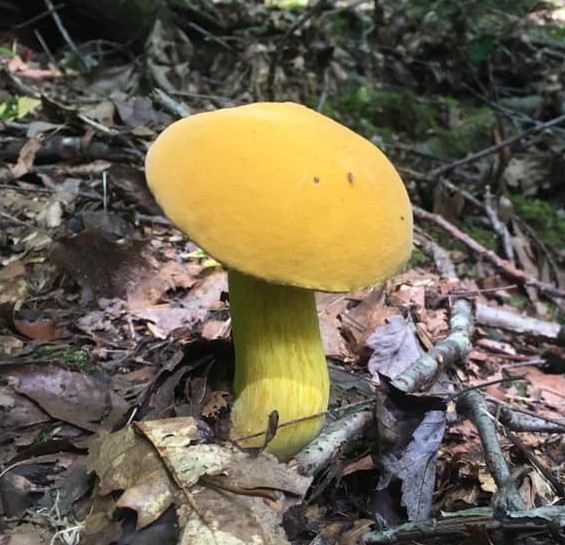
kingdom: Fungi
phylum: Basidiomycota
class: Agaricomycetes
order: Boletales
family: Boletaceae
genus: Boletus
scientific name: Boletus auripes
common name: Butter-foot bolete
